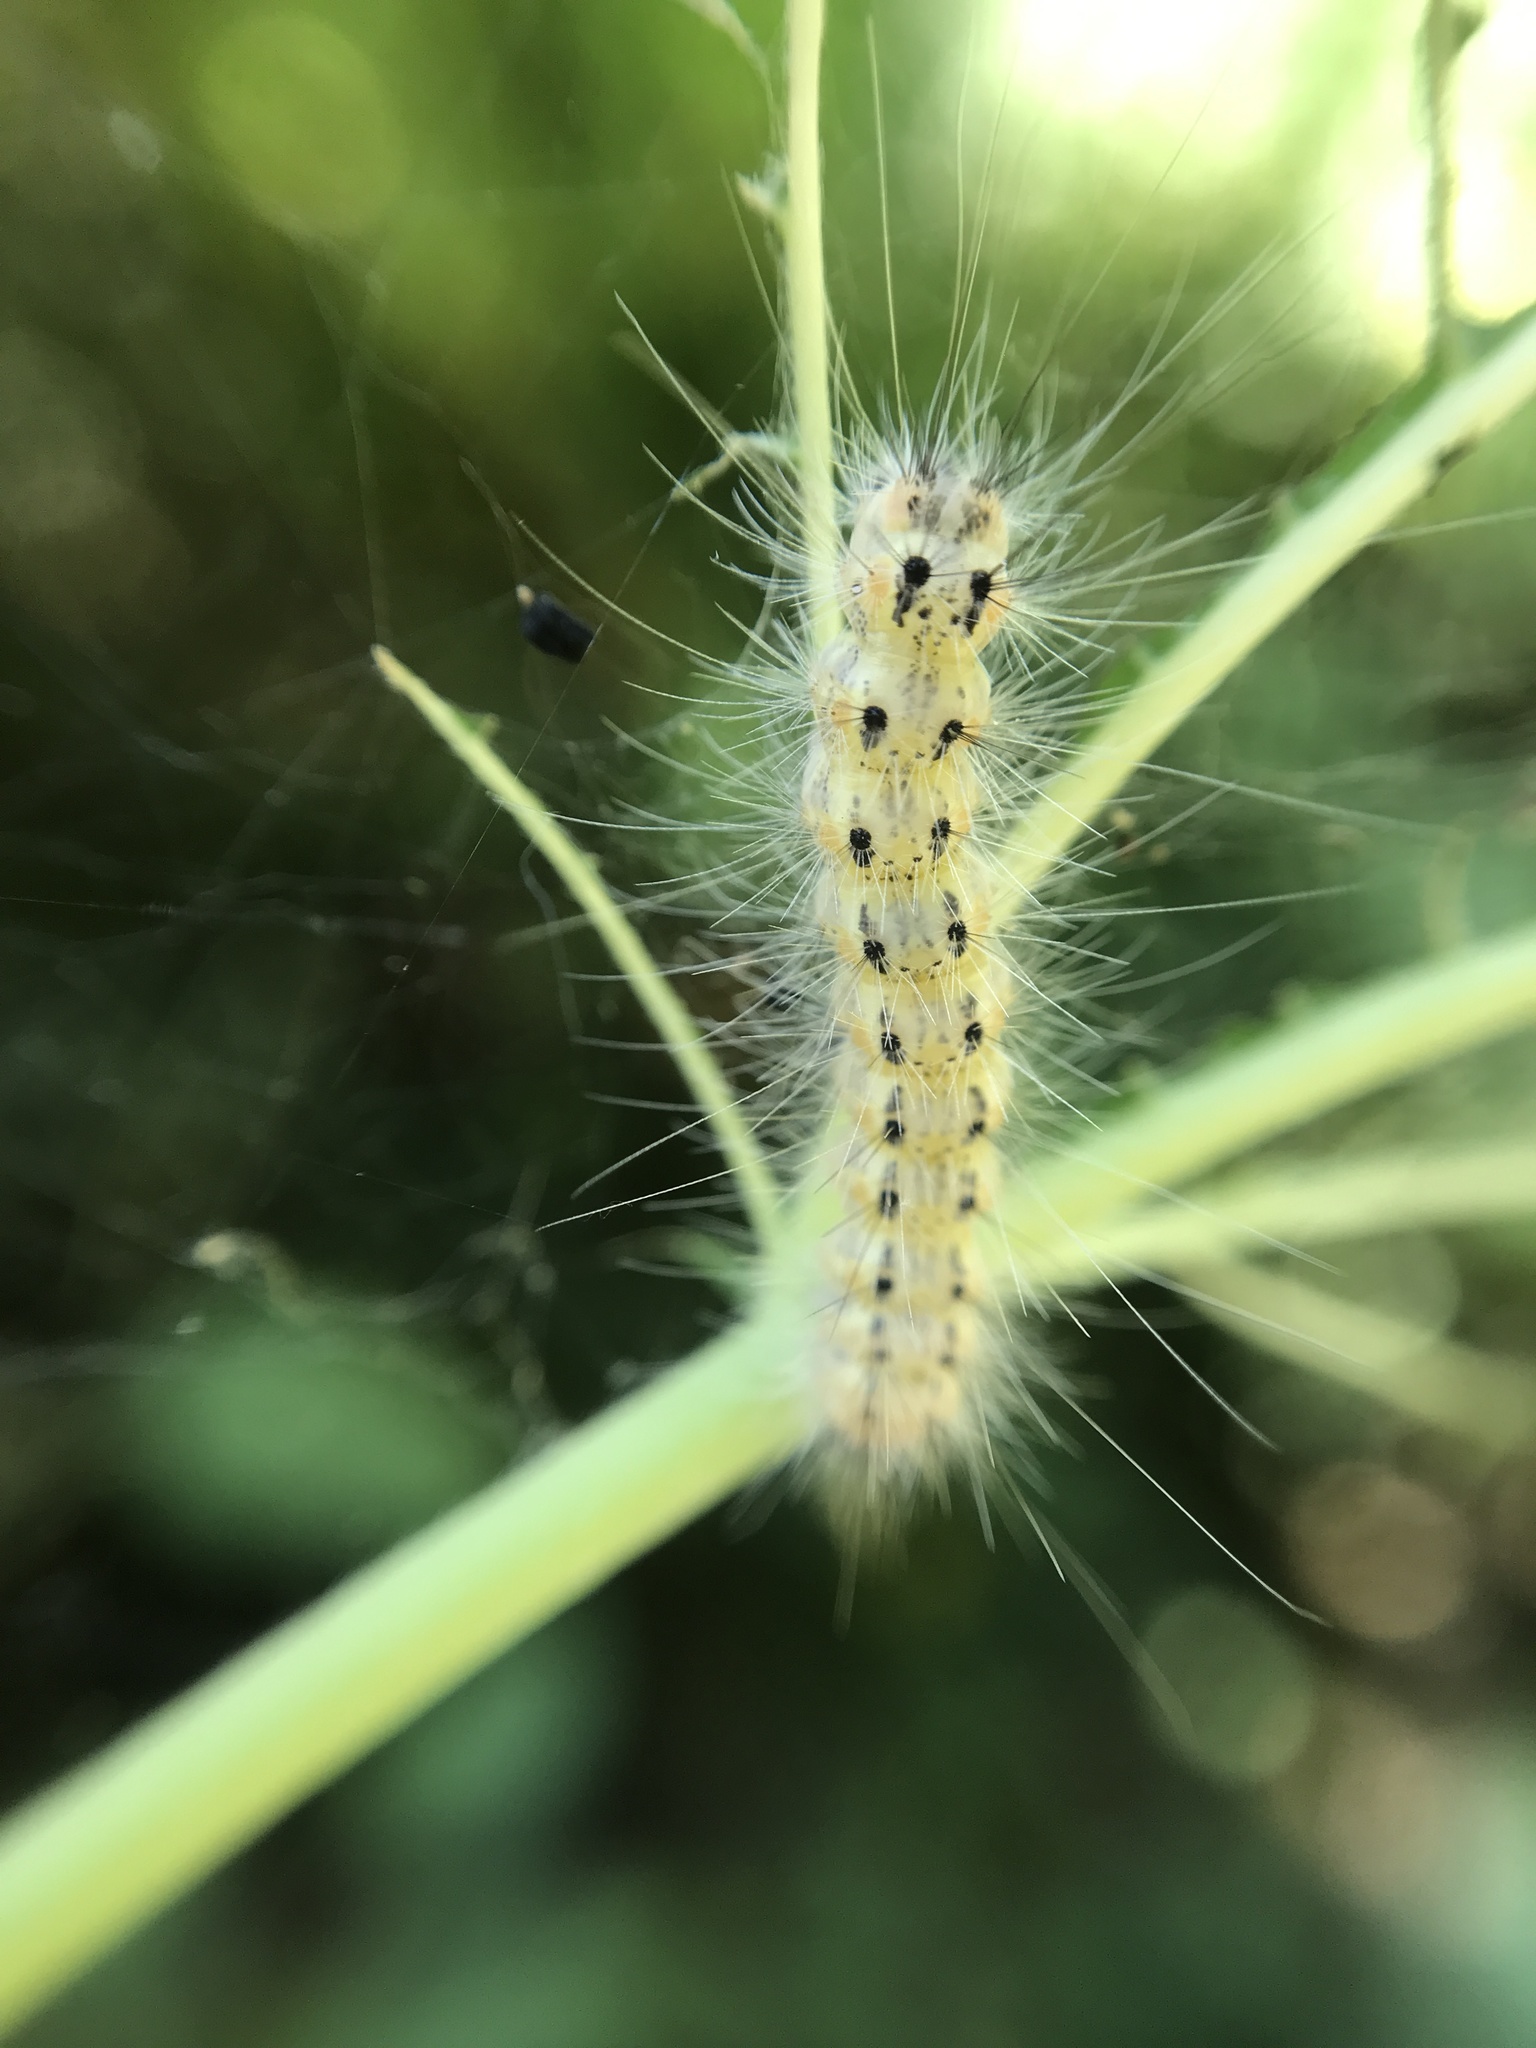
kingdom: Animalia
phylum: Arthropoda
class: Insecta
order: Lepidoptera
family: Erebidae
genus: Hyphantria
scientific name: Hyphantria cunea
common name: American white moth
